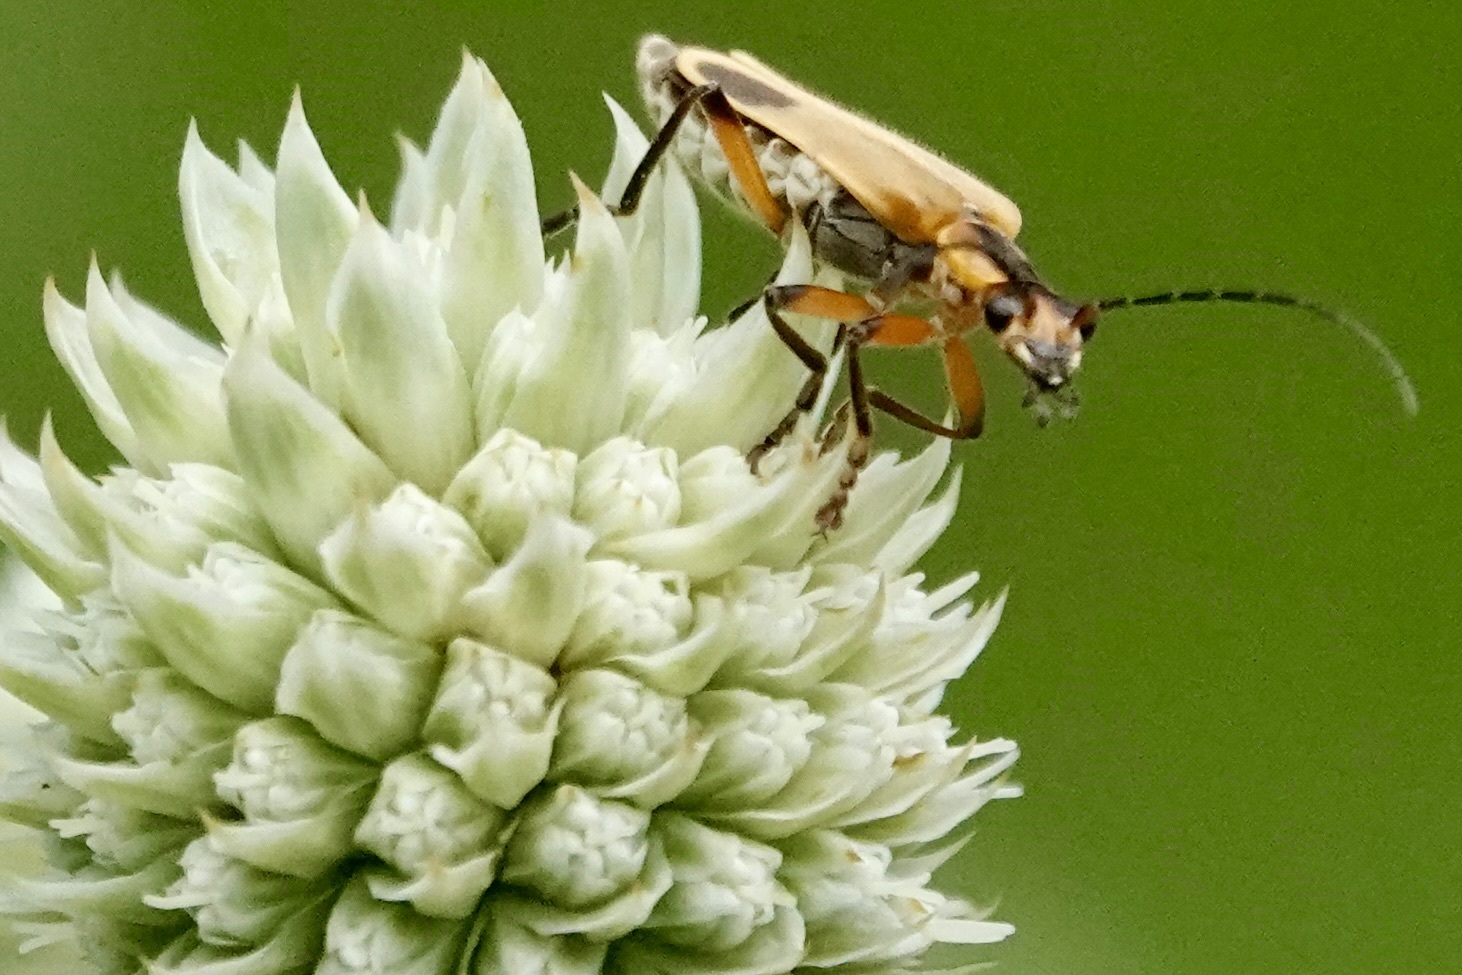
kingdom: Animalia
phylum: Arthropoda
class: Insecta
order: Coleoptera
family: Cantharidae
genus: Chauliognathus
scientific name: Chauliognathus marginatus
